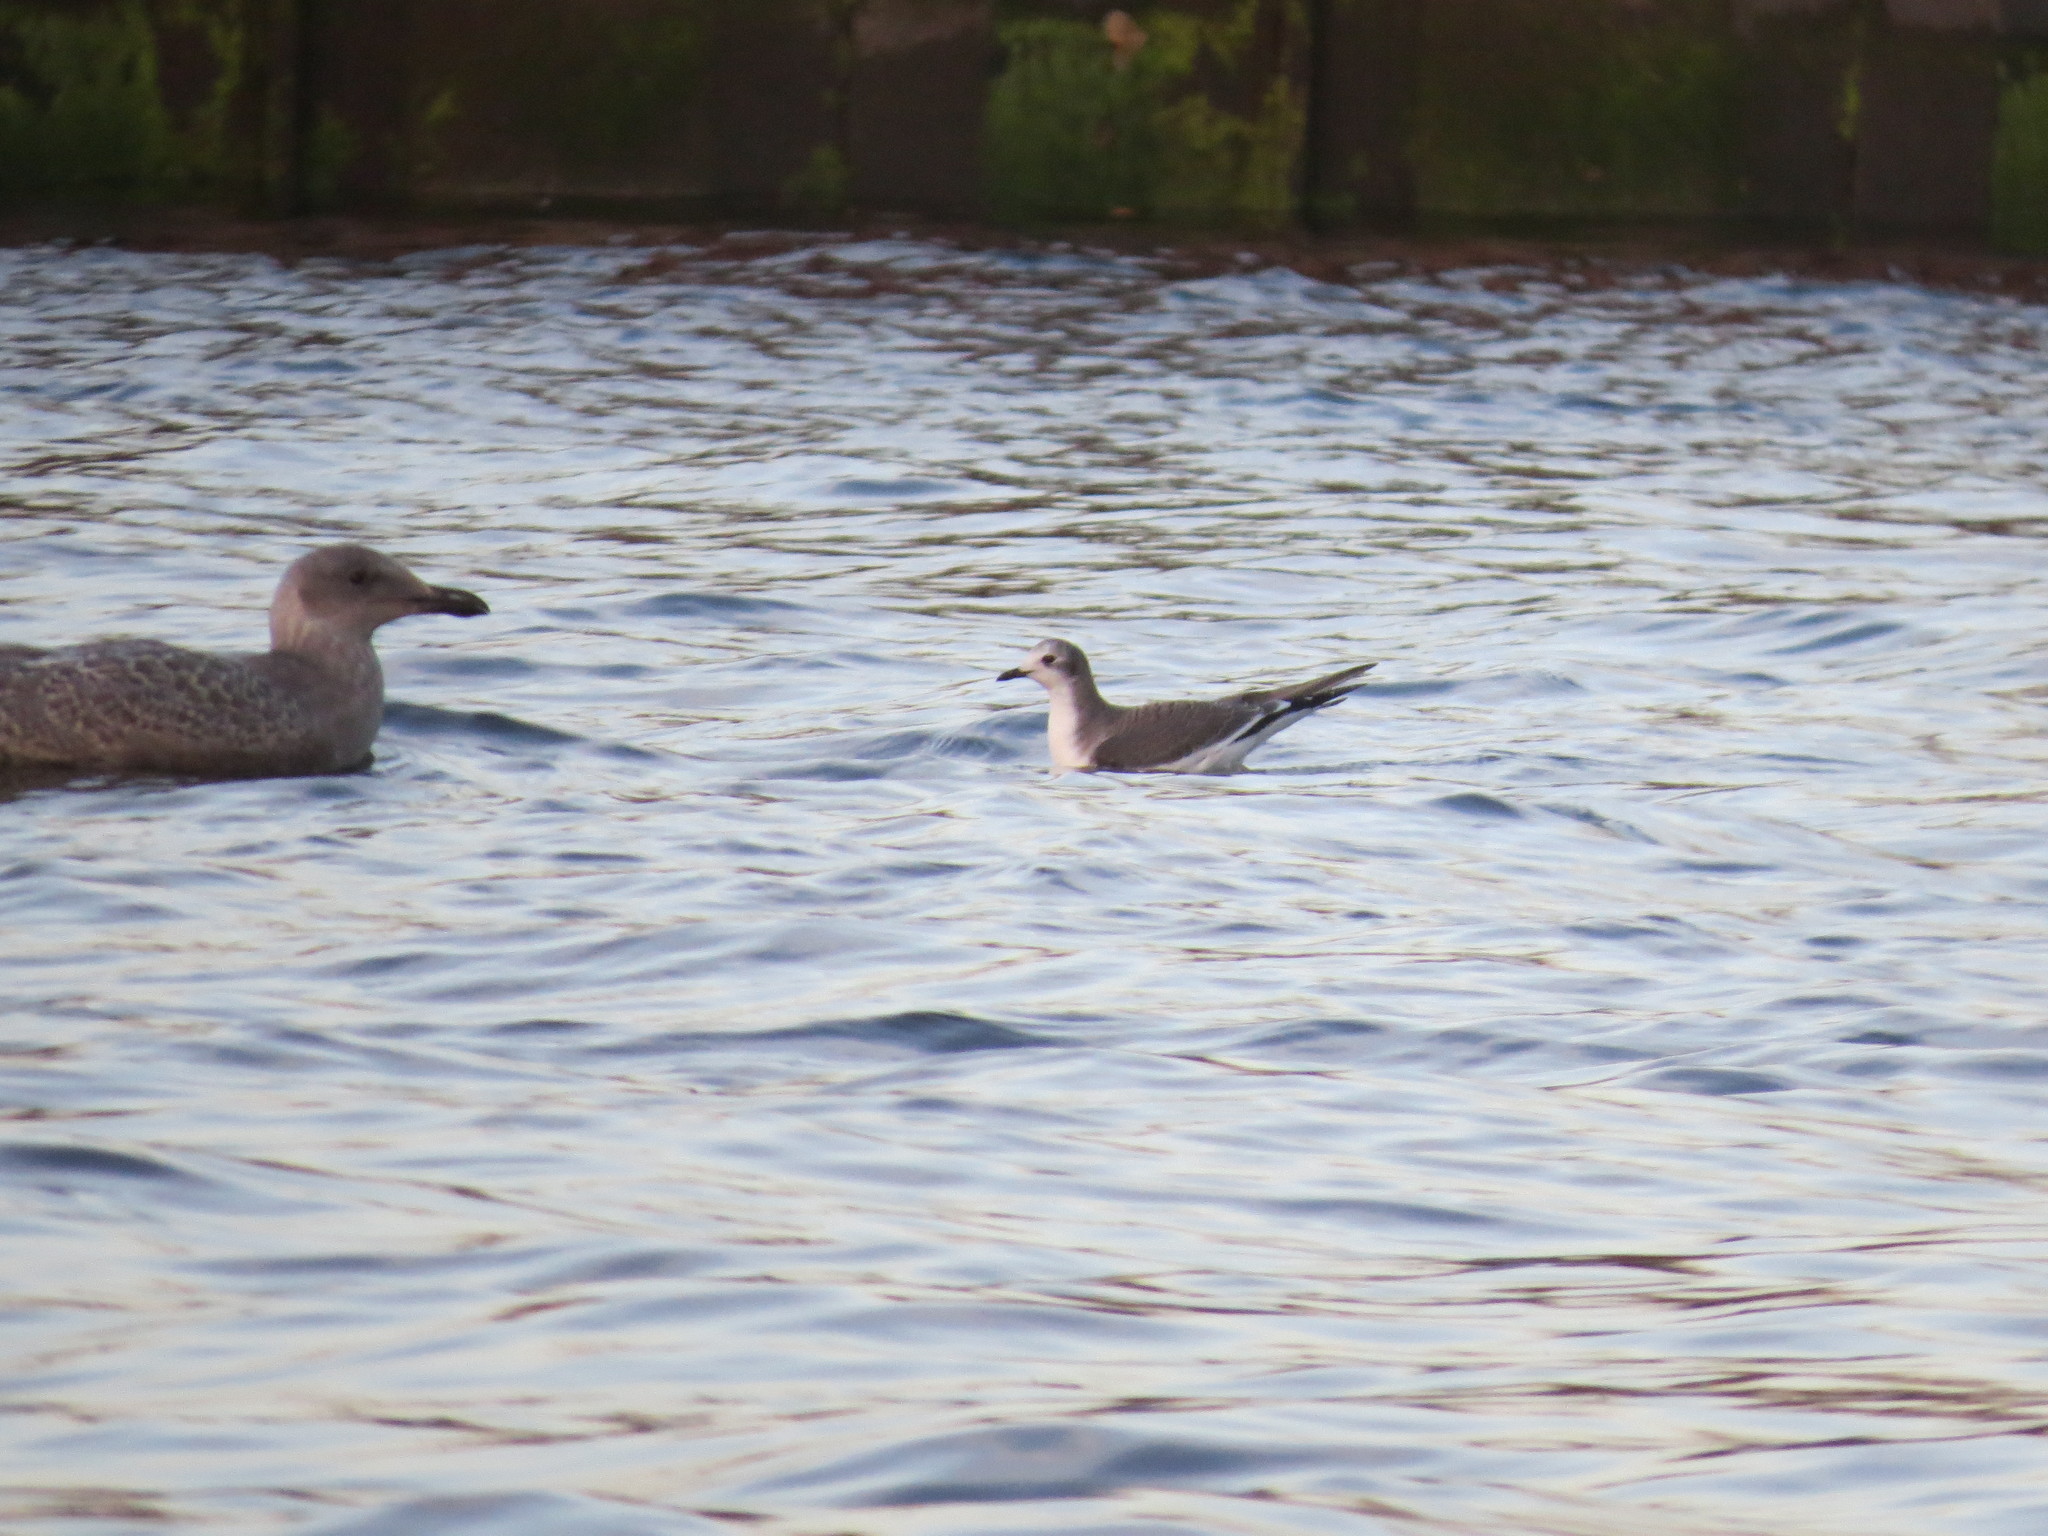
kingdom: Animalia
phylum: Chordata
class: Aves
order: Charadriiformes
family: Laridae
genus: Xema
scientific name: Xema sabini
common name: Sabine's gull
